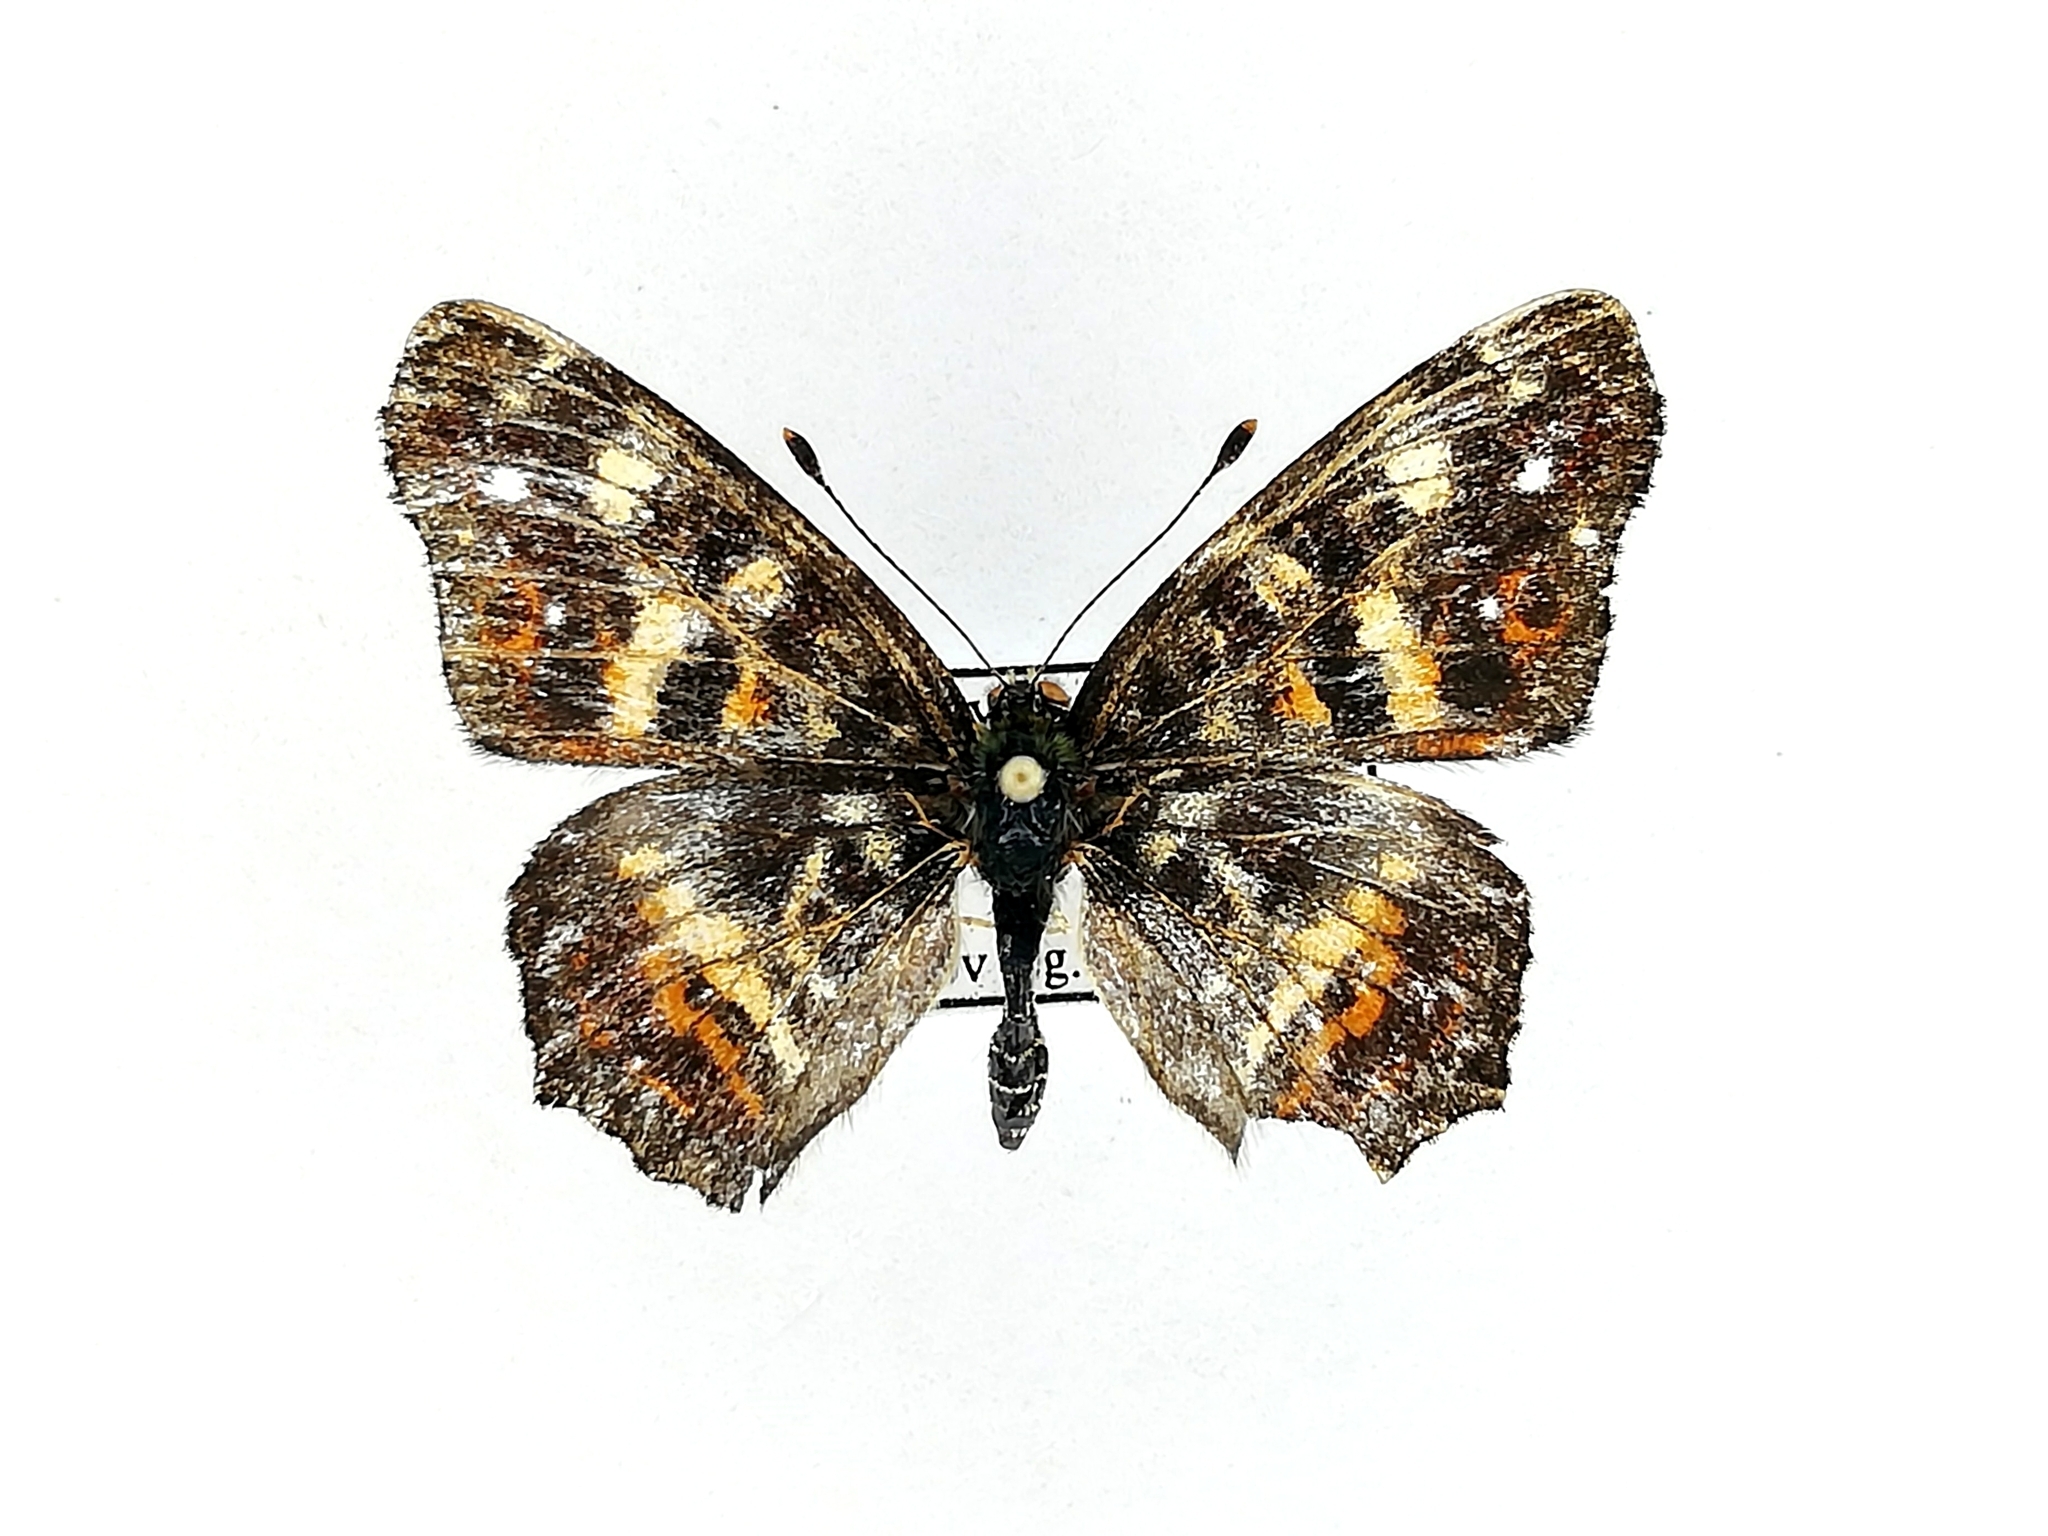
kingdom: Animalia
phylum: Arthropoda
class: Insecta
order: Lepidoptera
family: Nymphalidae
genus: Araschnia
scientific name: Araschnia levana
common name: Map butterfly
